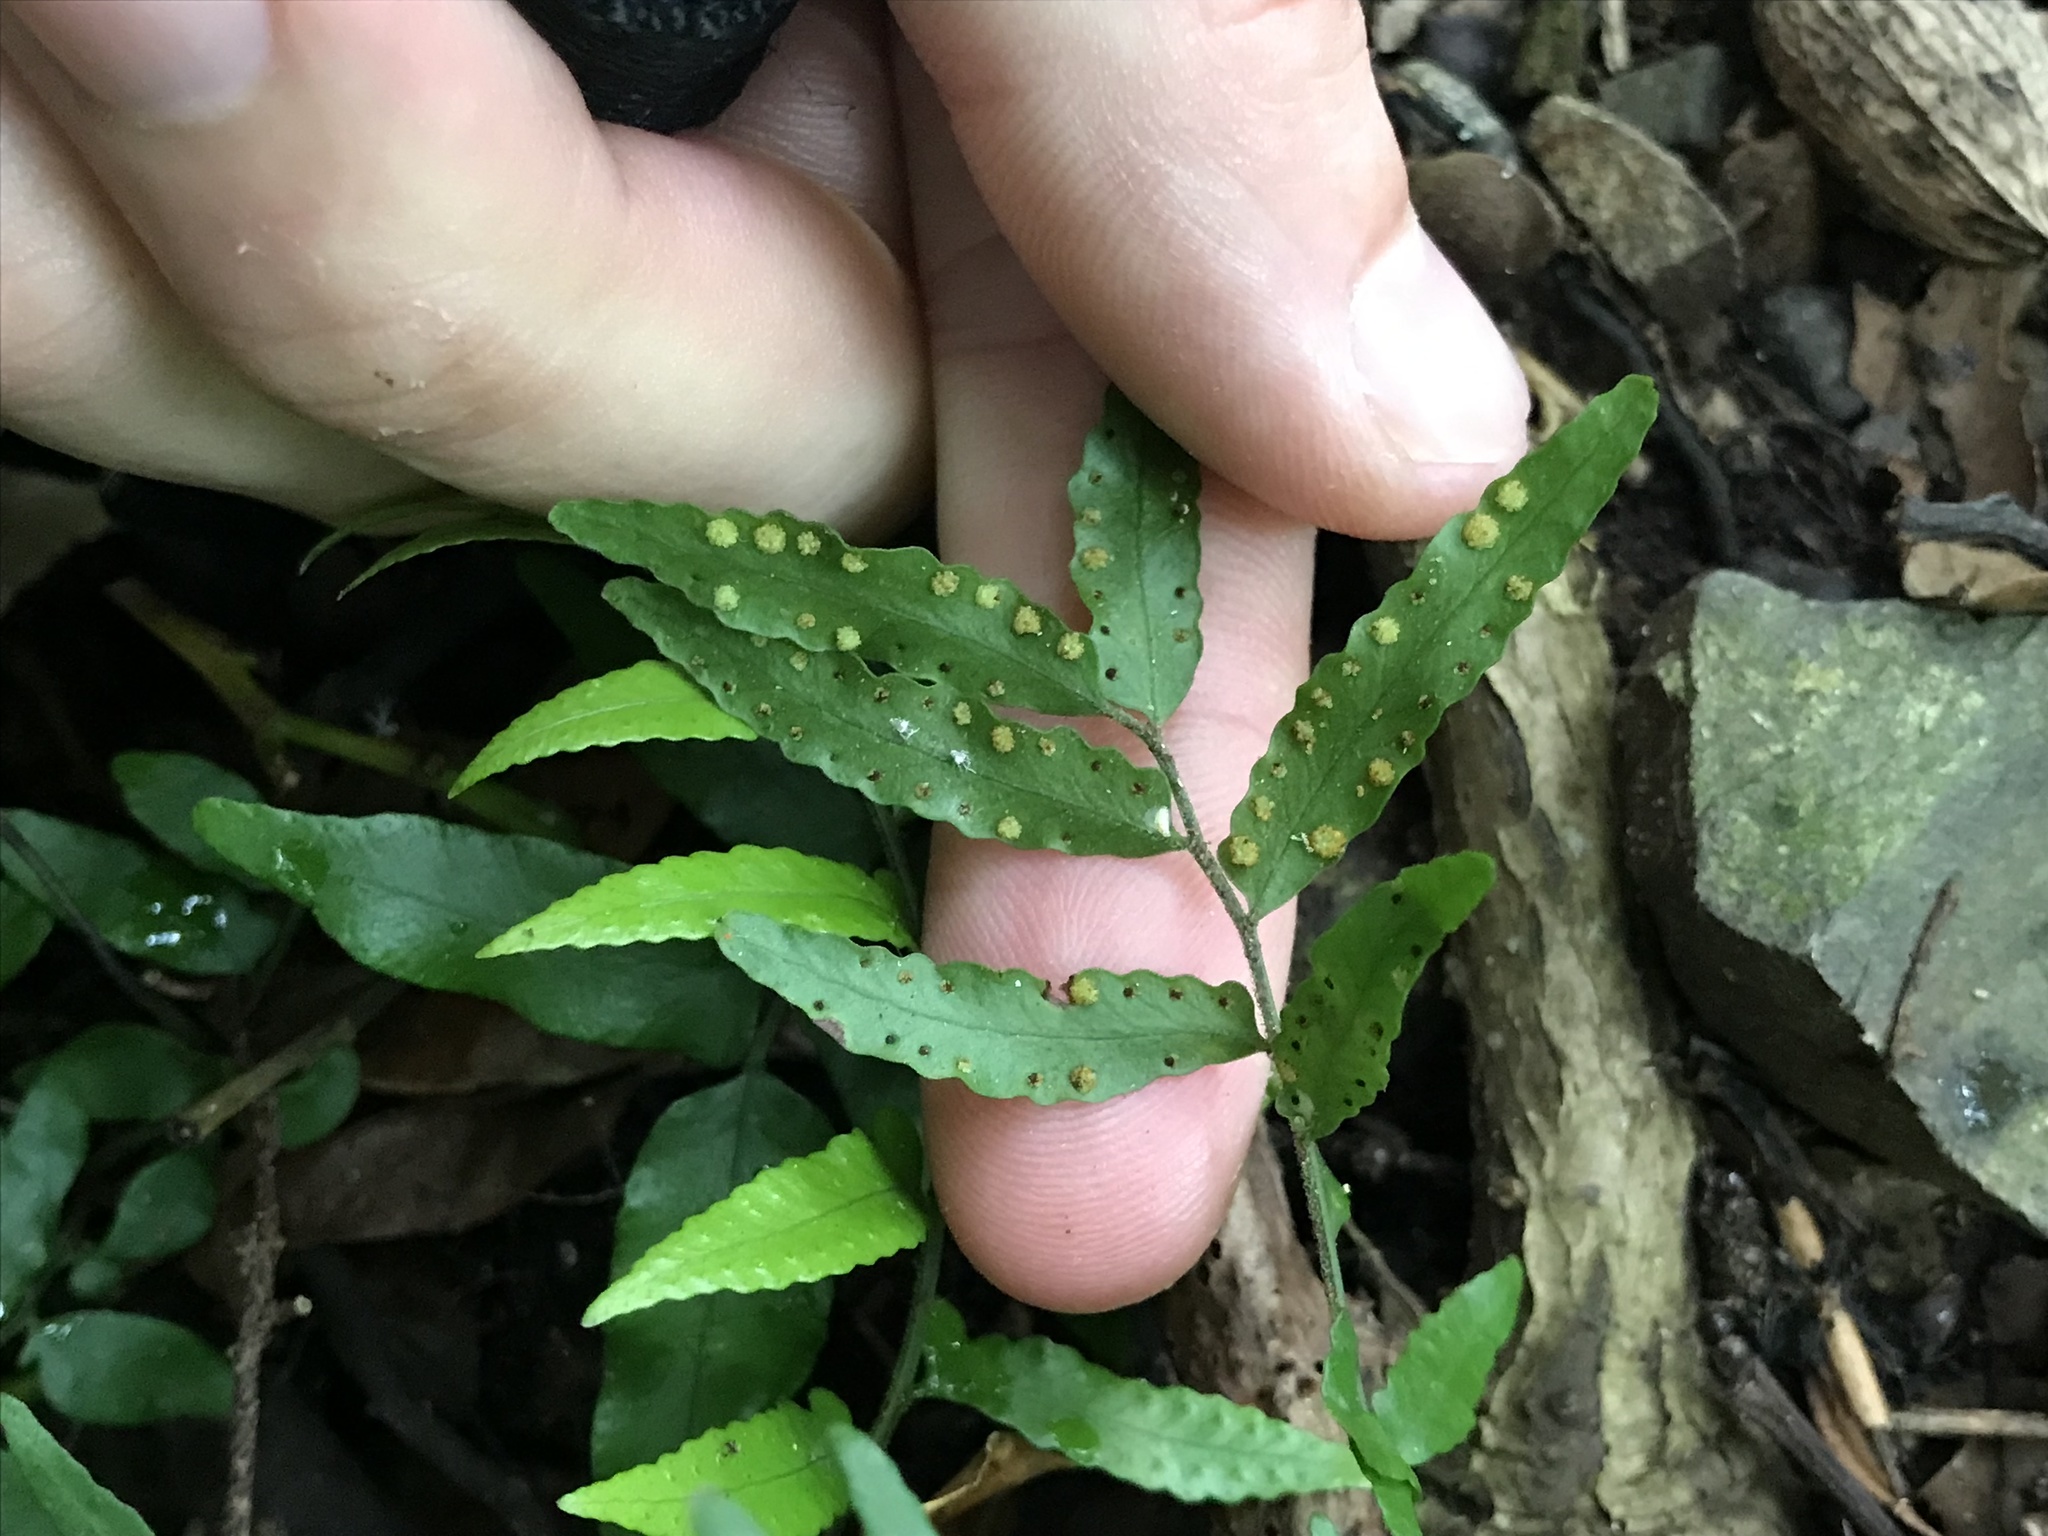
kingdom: Plantae
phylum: Tracheophyta
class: Polypodiopsida
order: Polypodiales
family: Tectariaceae
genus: Arthropteris
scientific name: Arthropteris tenella
